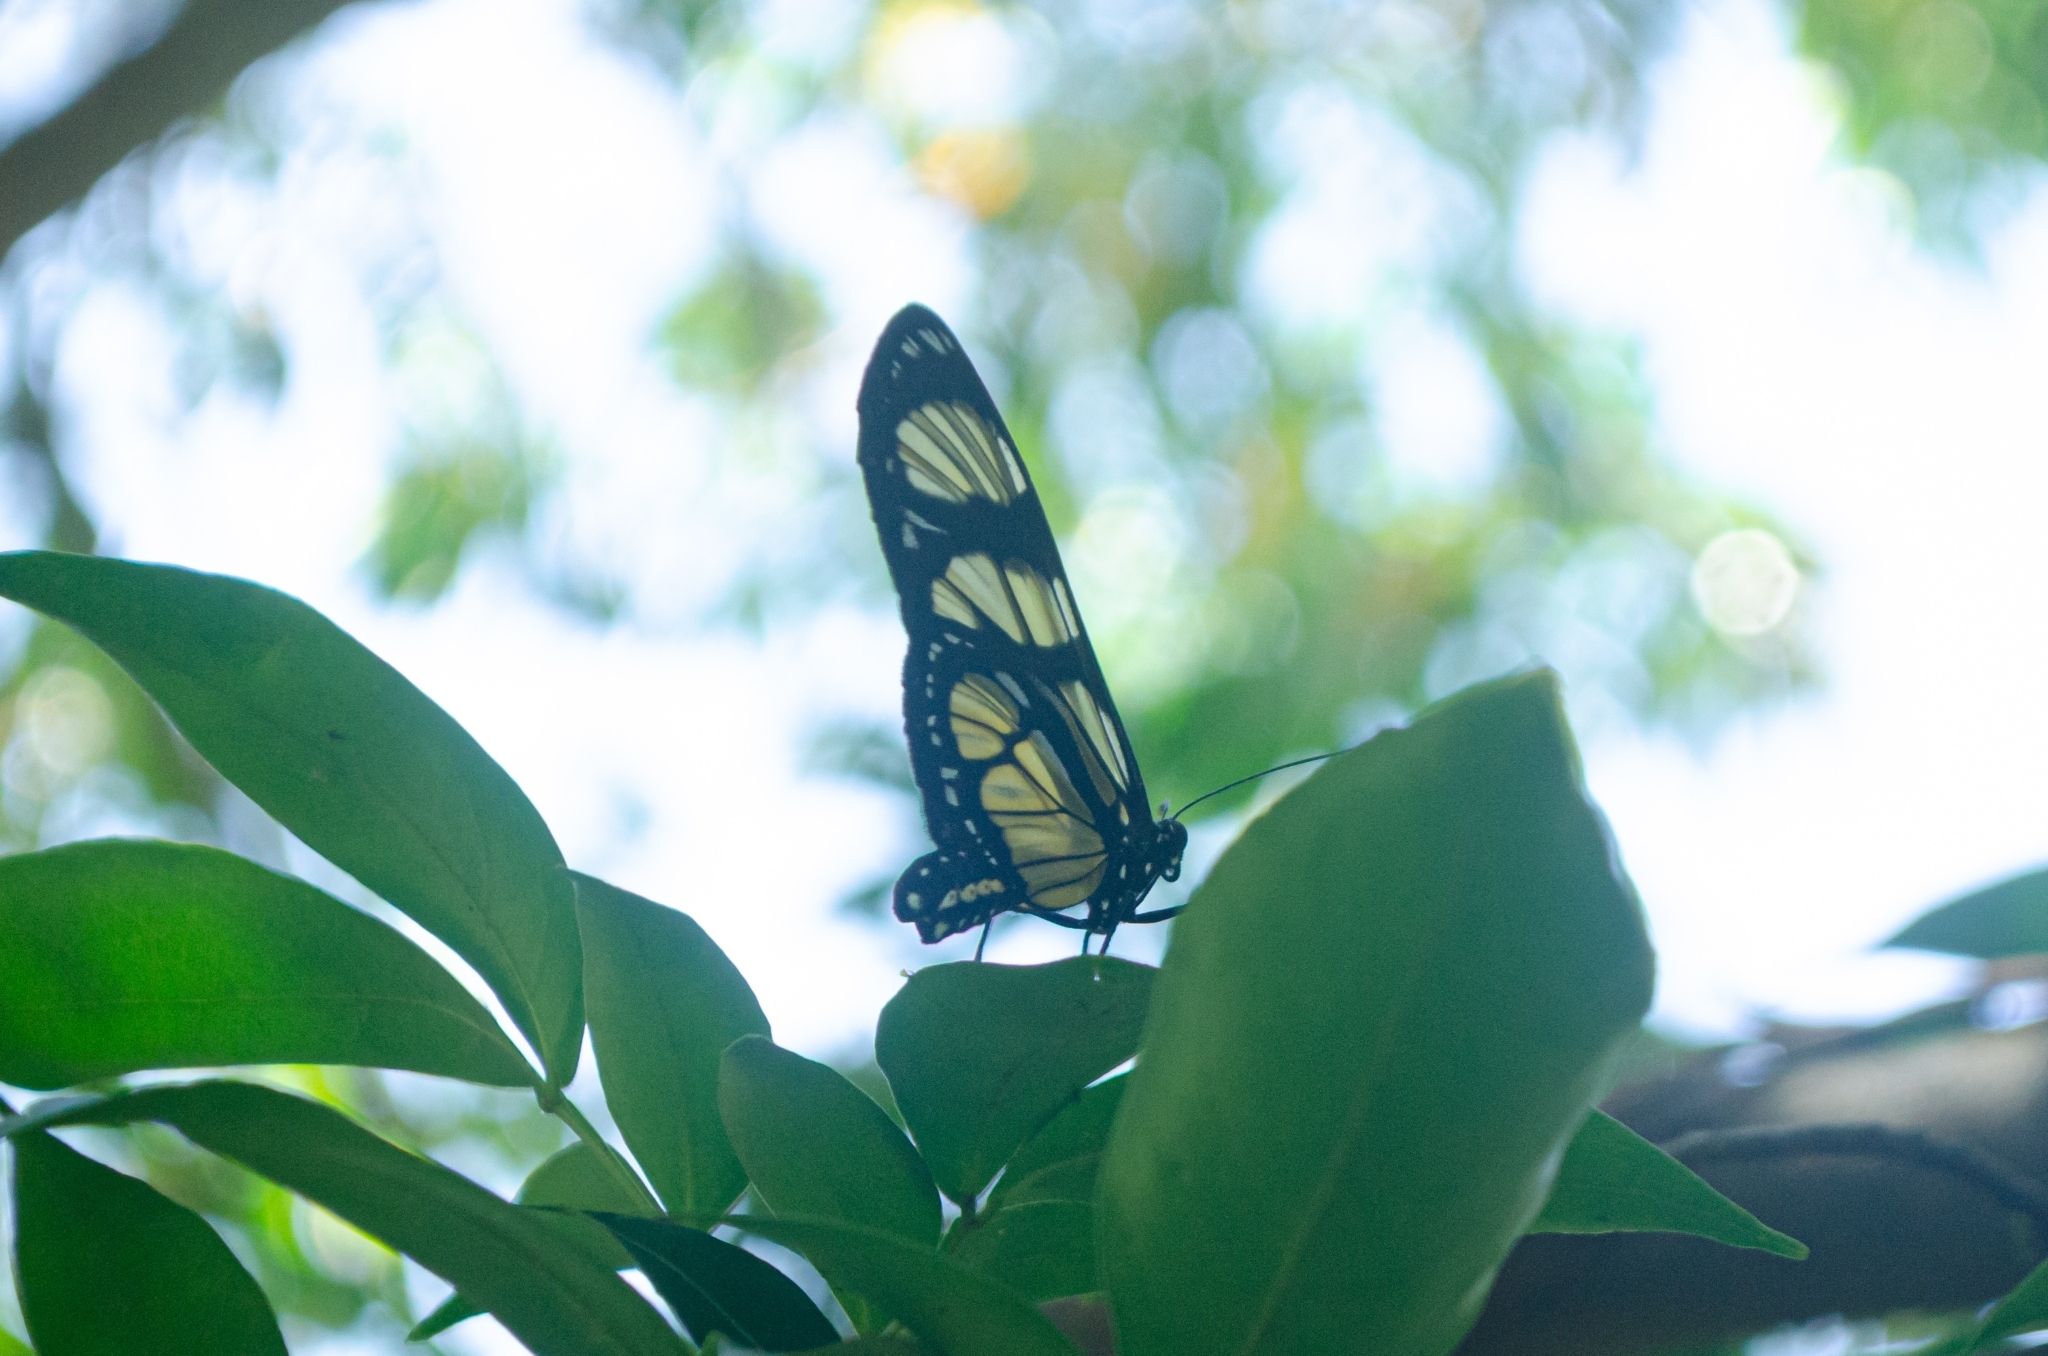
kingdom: Animalia
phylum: Arthropoda
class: Insecta
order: Lepidoptera
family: Nymphalidae
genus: Methona
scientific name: Methona themisto
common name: Themisto amberwing
